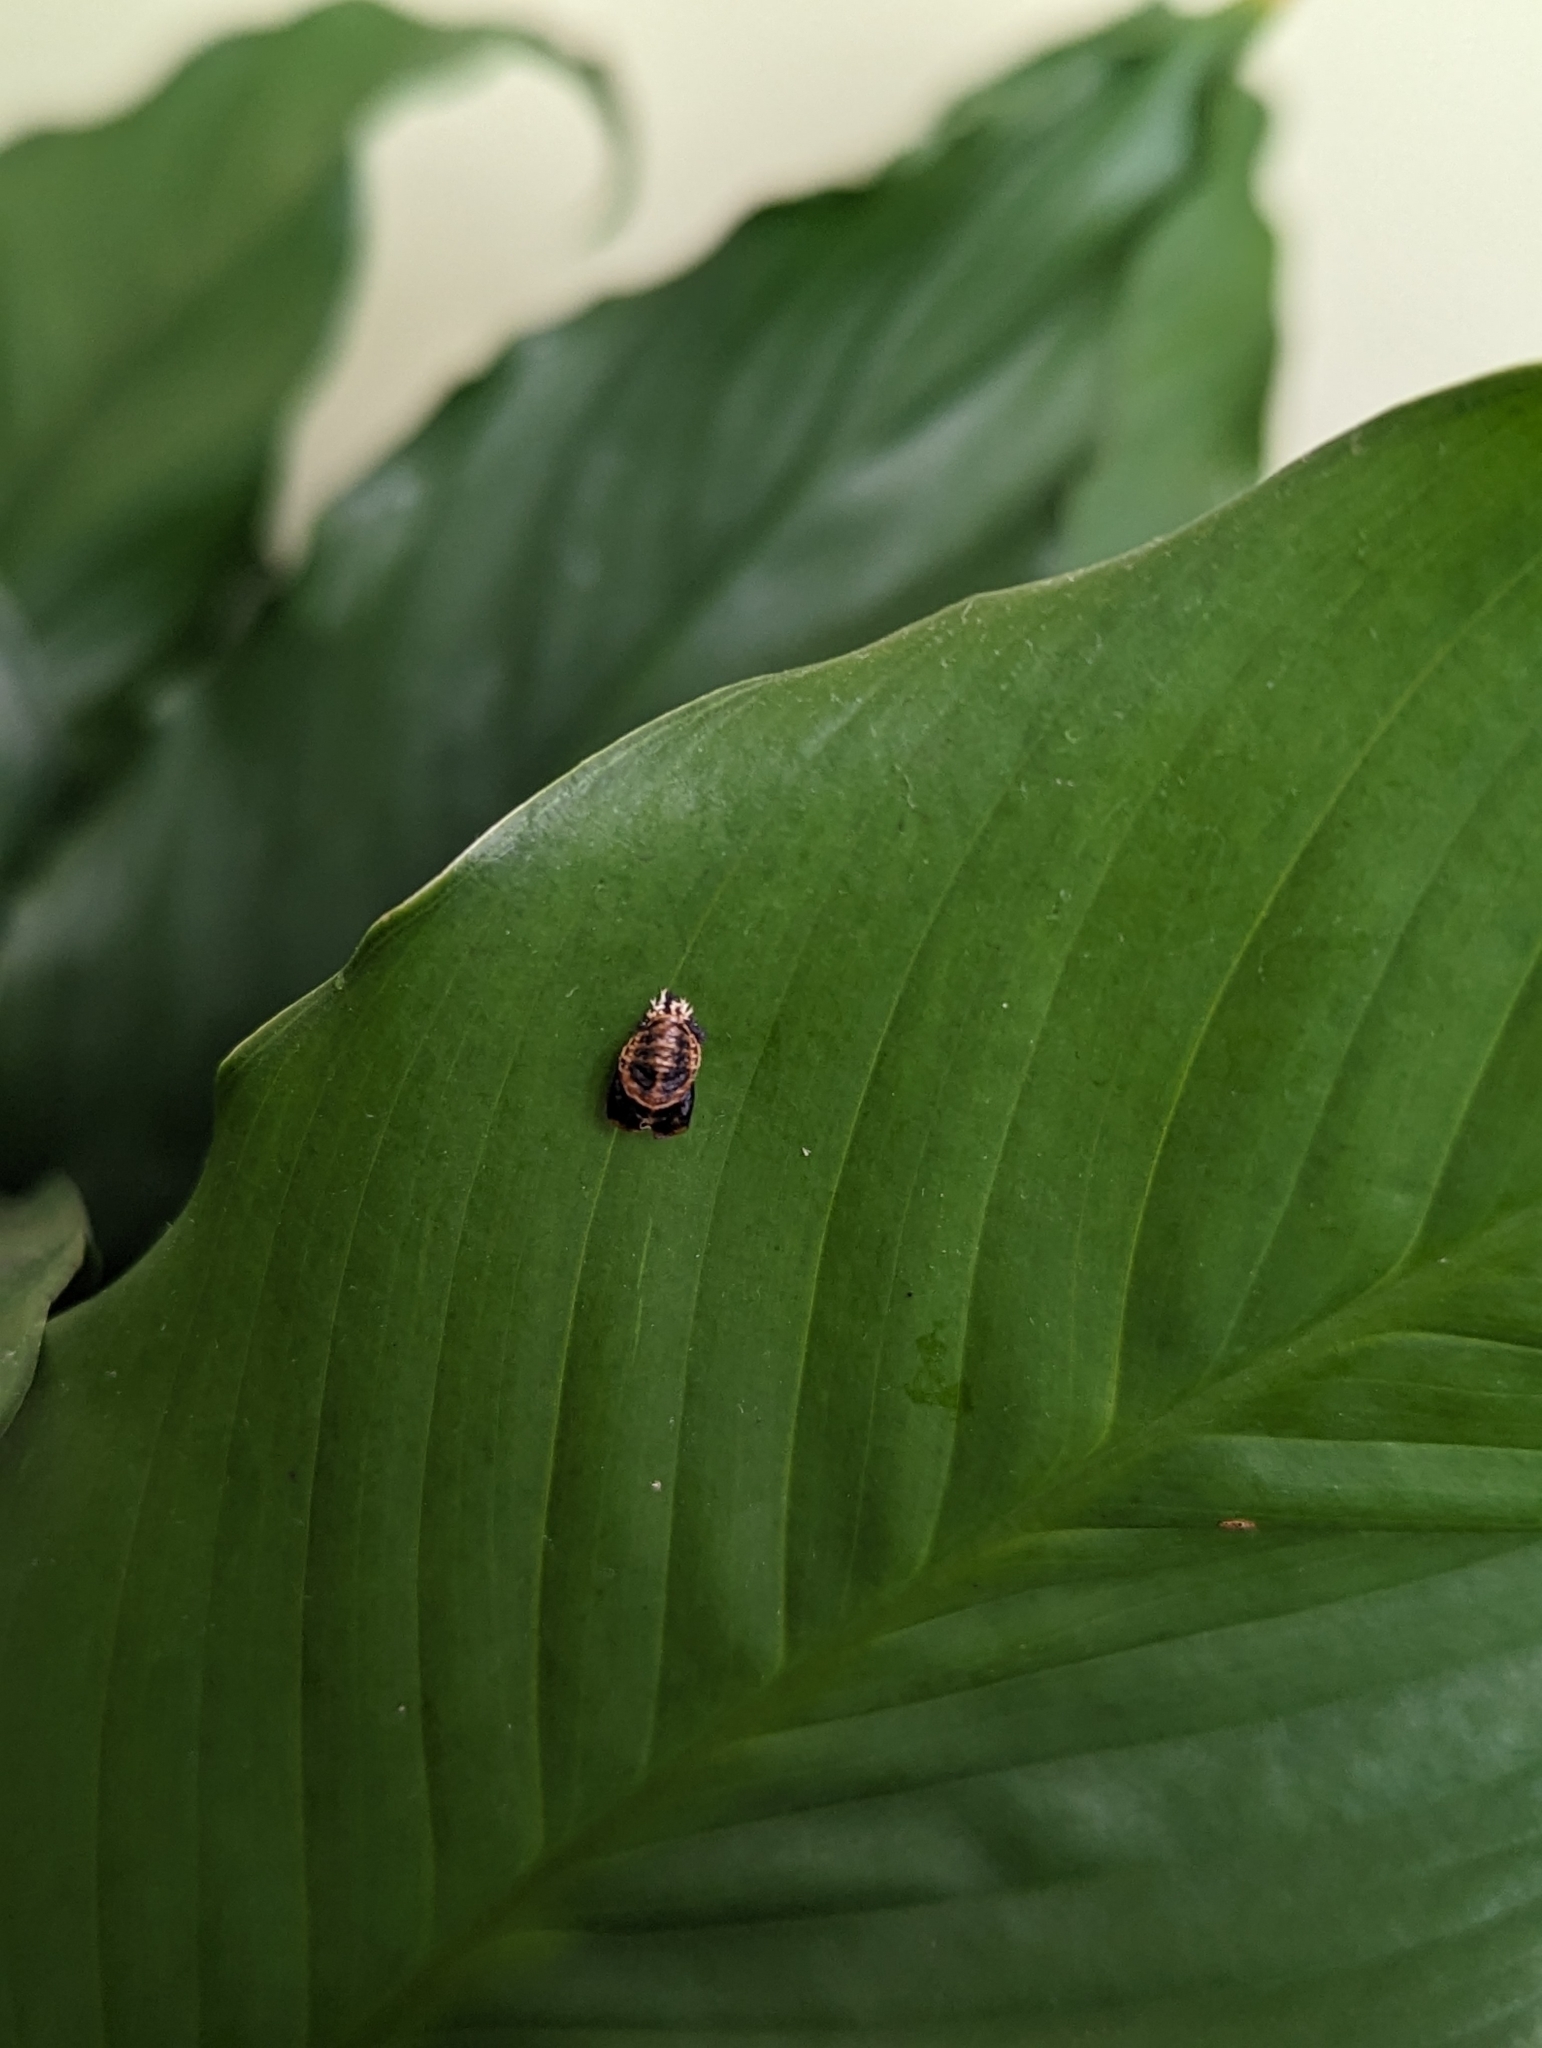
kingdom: Animalia
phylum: Arthropoda
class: Insecta
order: Coleoptera
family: Coccinellidae
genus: Harmonia
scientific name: Harmonia axyridis
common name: Harlequin ladybird
